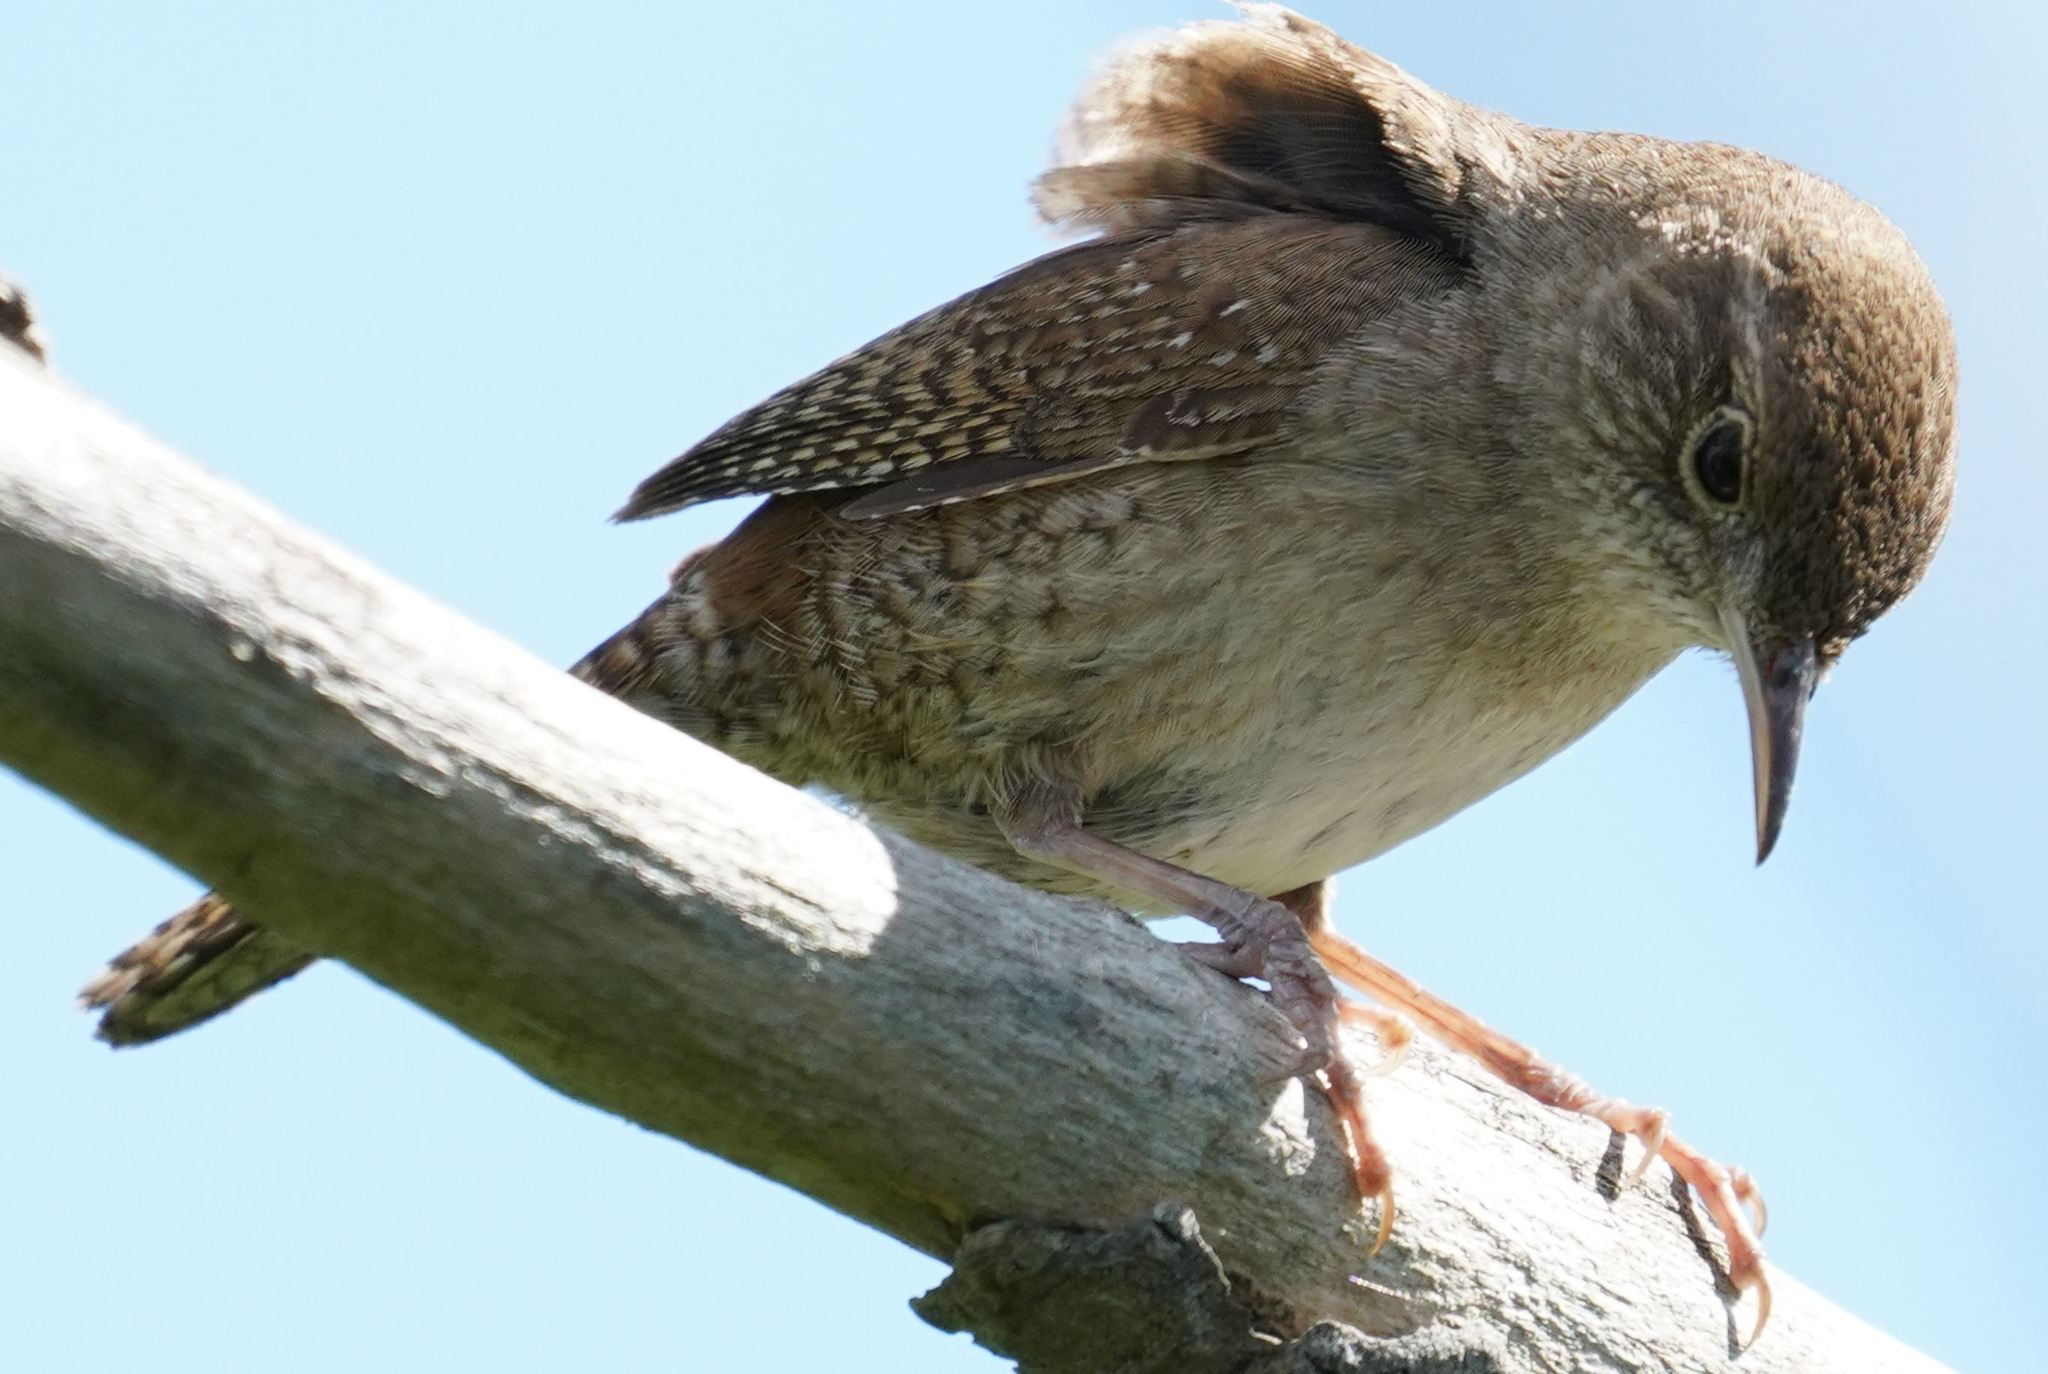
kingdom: Animalia
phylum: Chordata
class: Aves
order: Passeriformes
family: Troglodytidae
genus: Troglodytes
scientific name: Troglodytes aedon
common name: House wren
